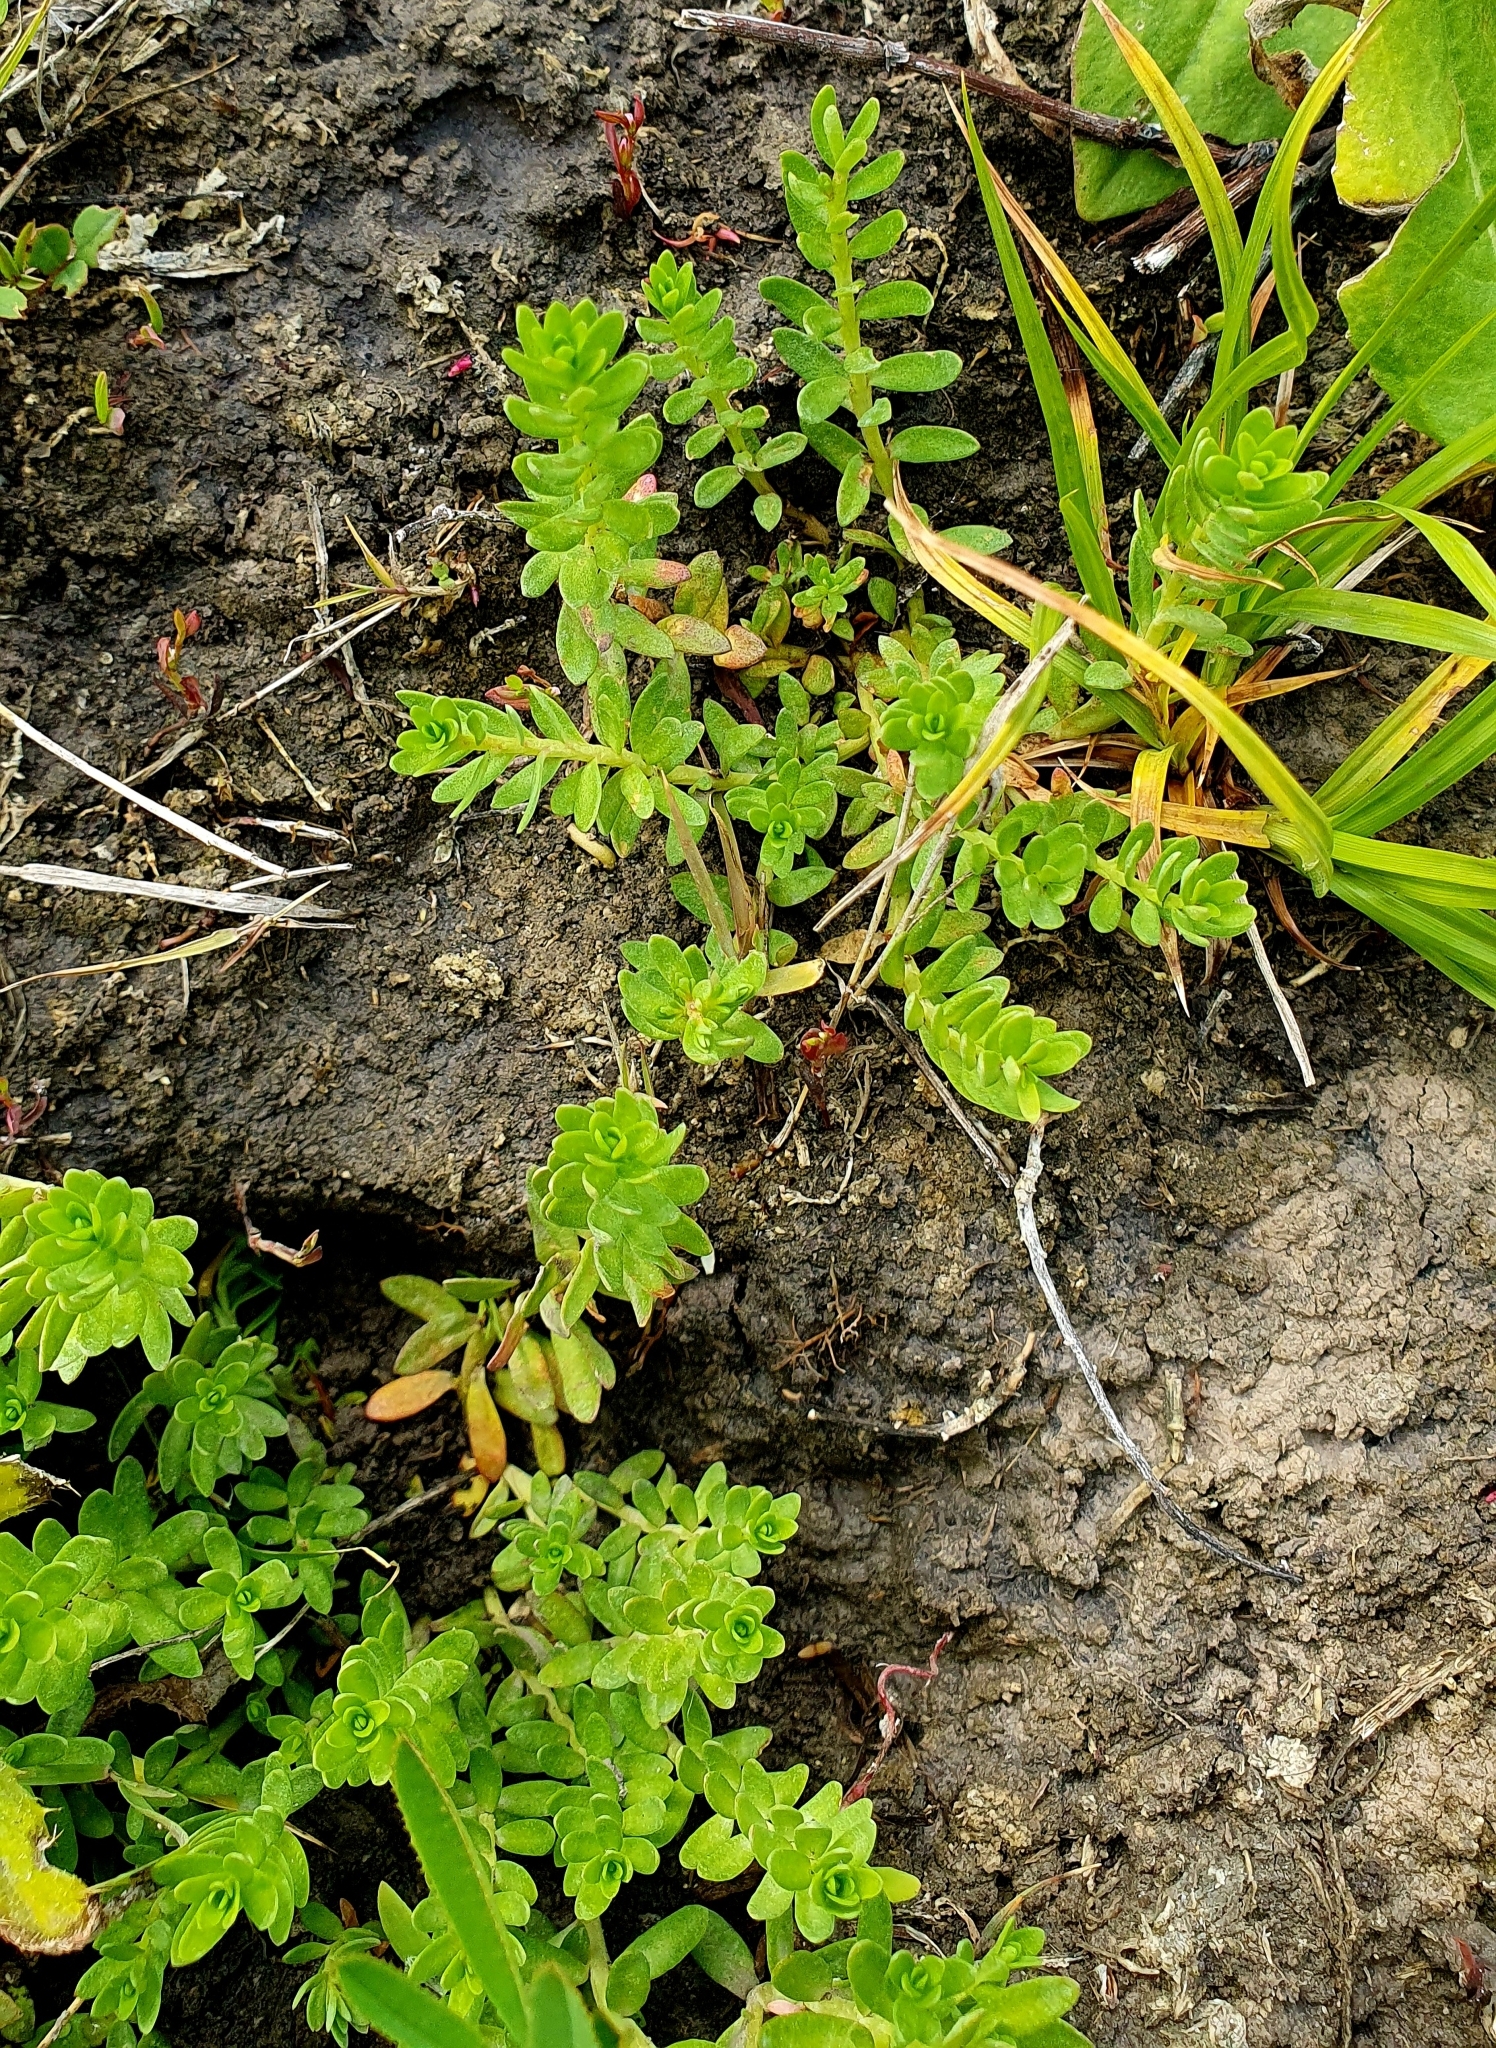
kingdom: Plantae
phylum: Tracheophyta
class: Magnoliopsida
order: Ericales
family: Primulaceae
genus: Lysimachia
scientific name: Lysimachia maritima
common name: Sea milkwort
